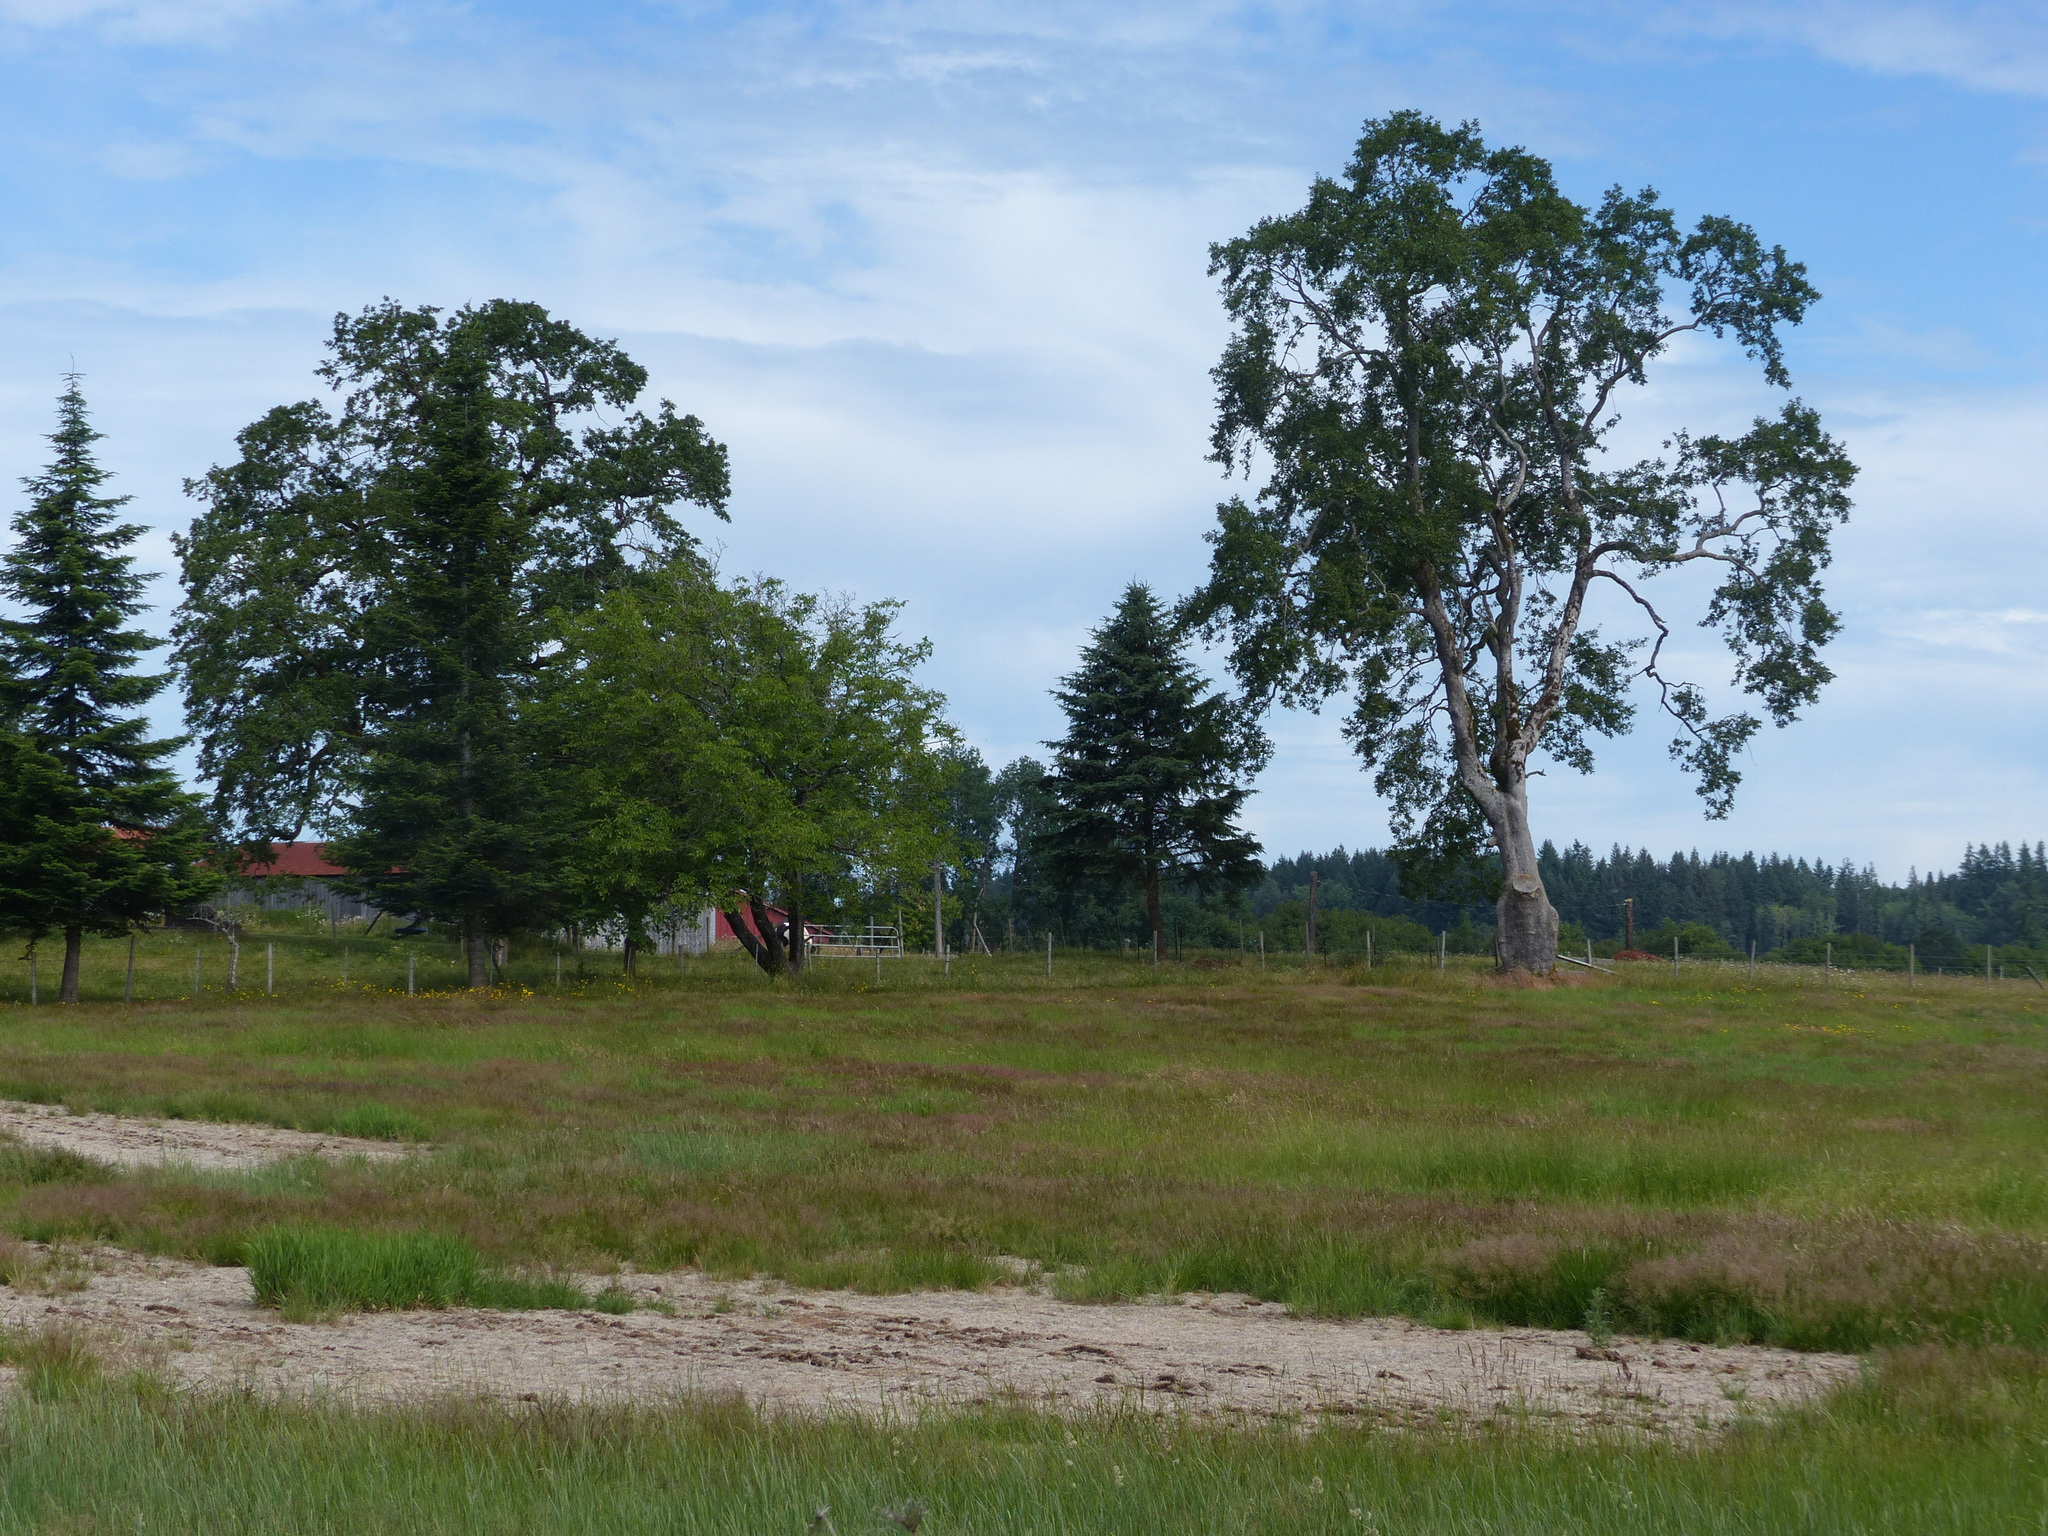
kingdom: Plantae
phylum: Tracheophyta
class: Magnoliopsida
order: Fagales
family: Fagaceae
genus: Quercus
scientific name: Quercus garryana
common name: Garry oak
